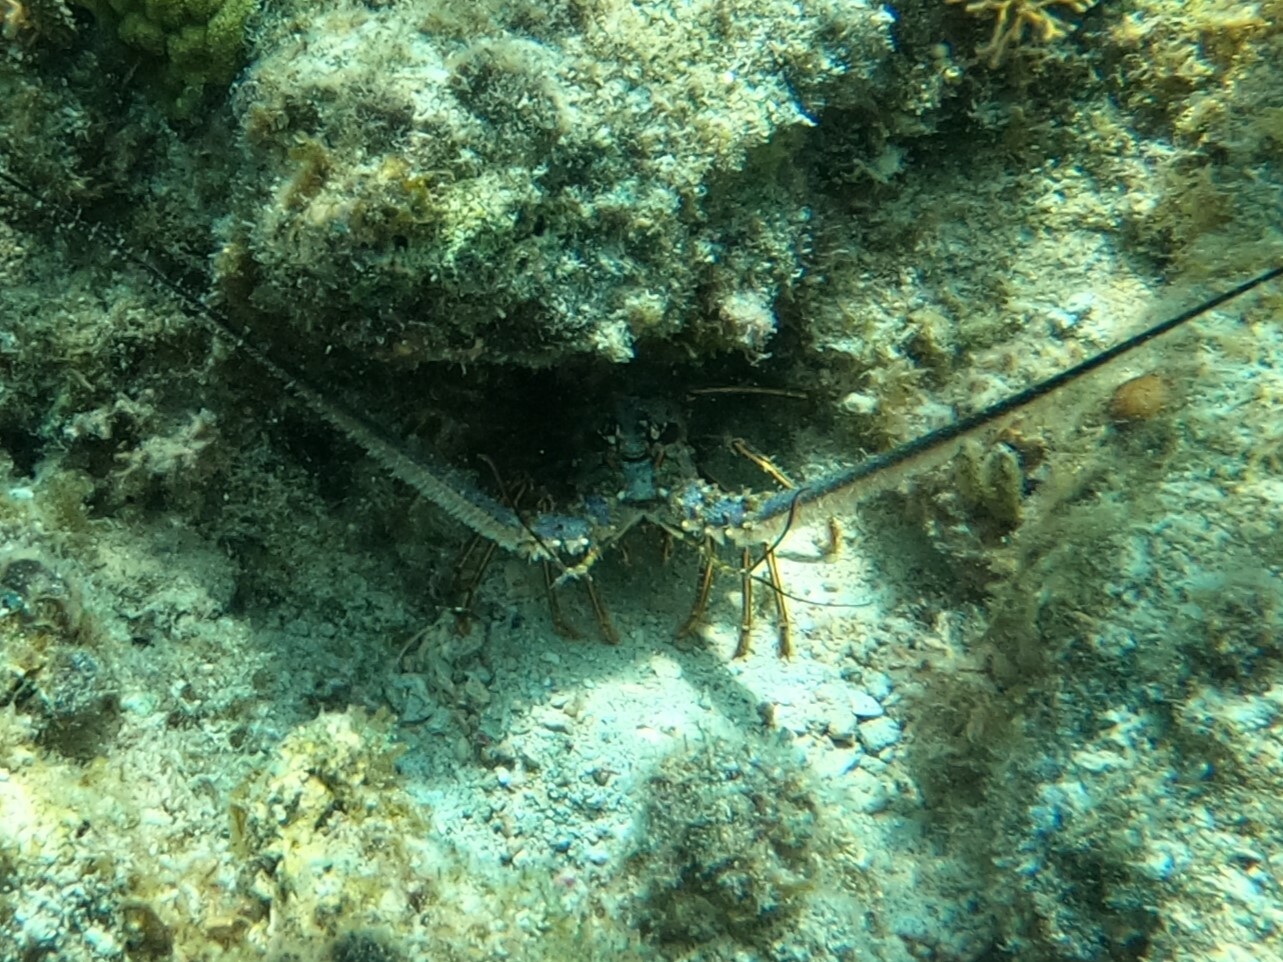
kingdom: Animalia
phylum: Arthropoda
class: Malacostraca
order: Decapoda
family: Palinuridae
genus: Panulirus
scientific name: Panulirus argus
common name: Caribbean spiny lobster
